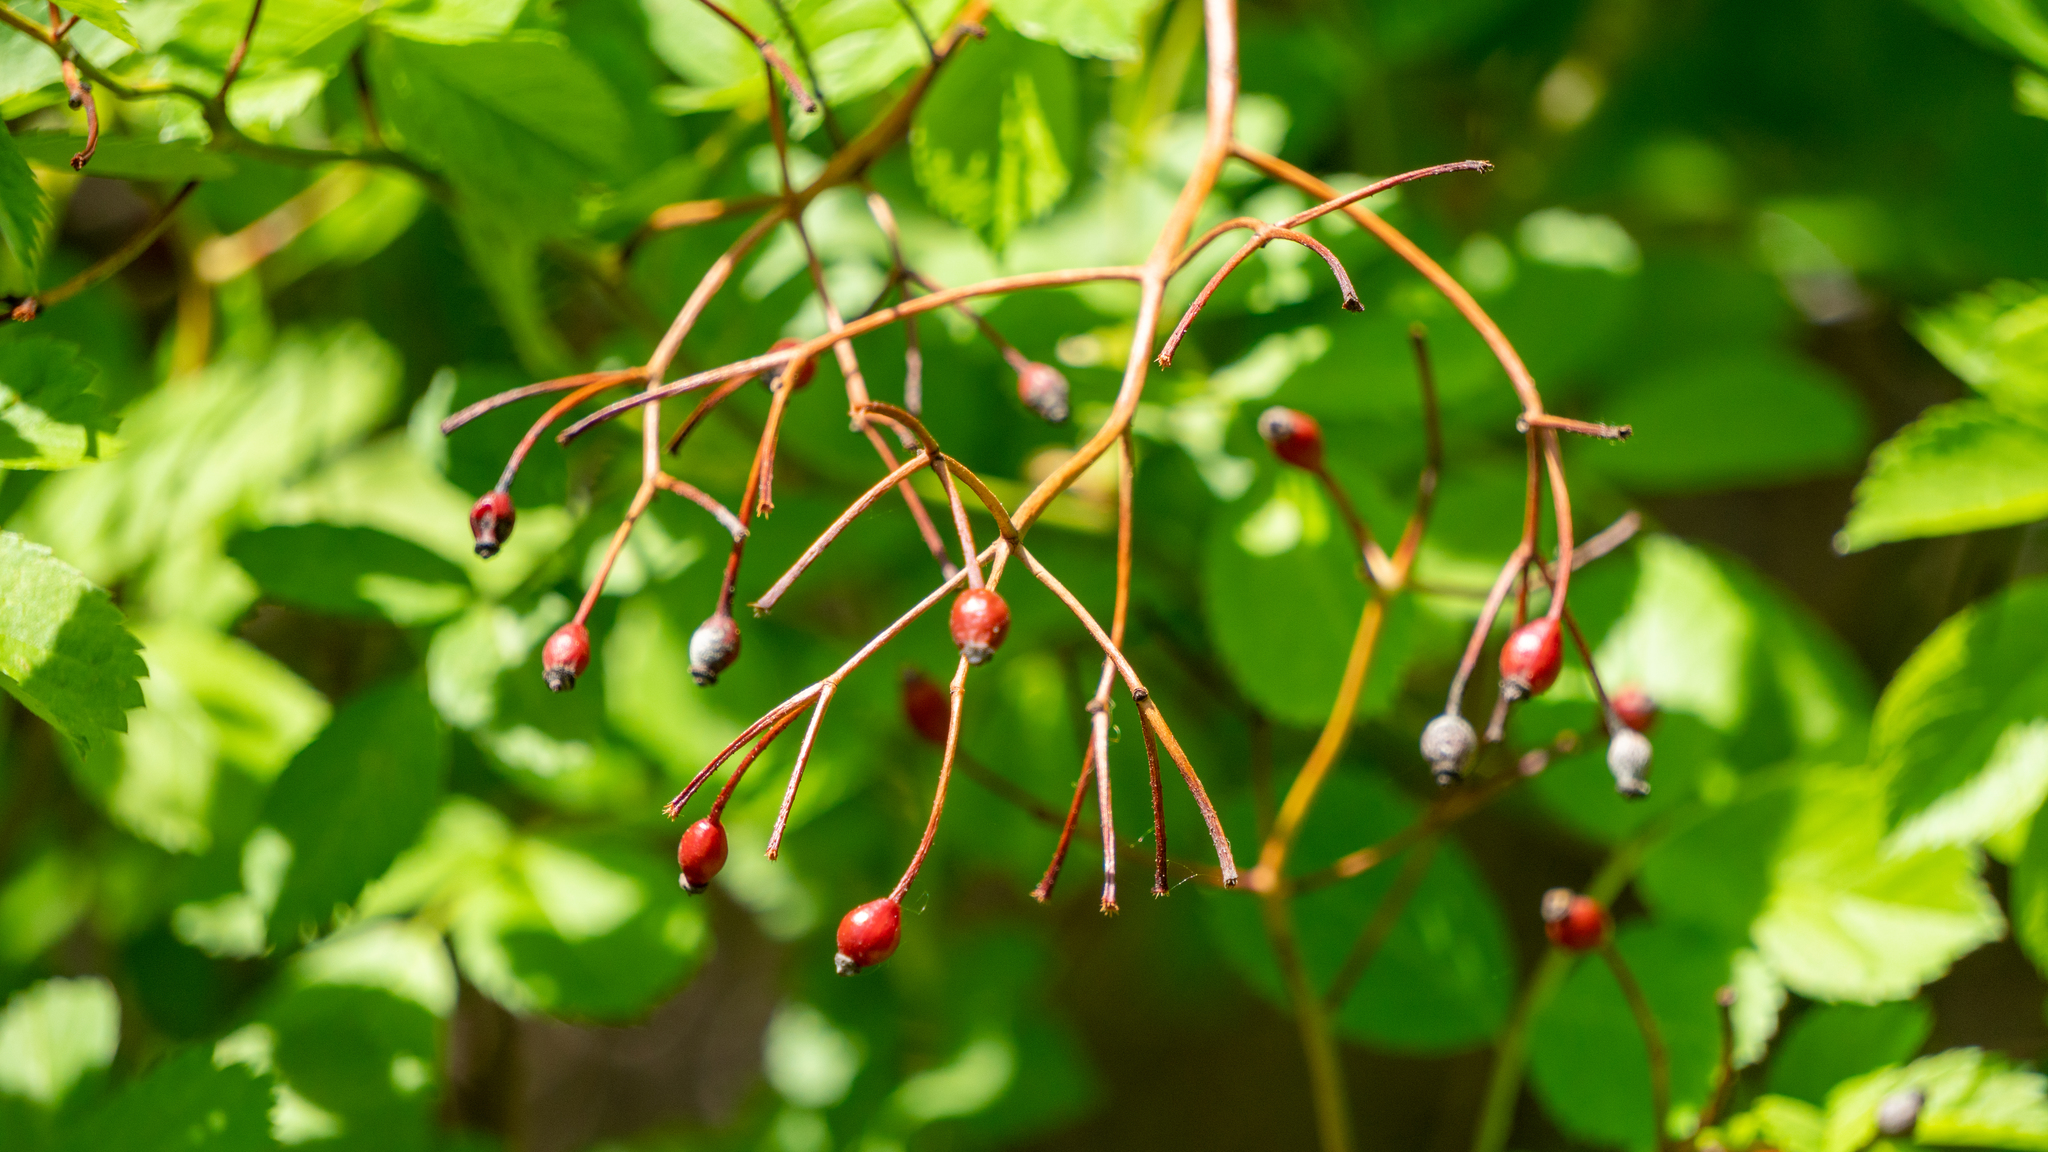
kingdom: Plantae
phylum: Tracheophyta
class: Magnoliopsida
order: Rosales
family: Rosaceae
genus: Rosa
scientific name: Rosa multiflora
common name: Multiflora rose
